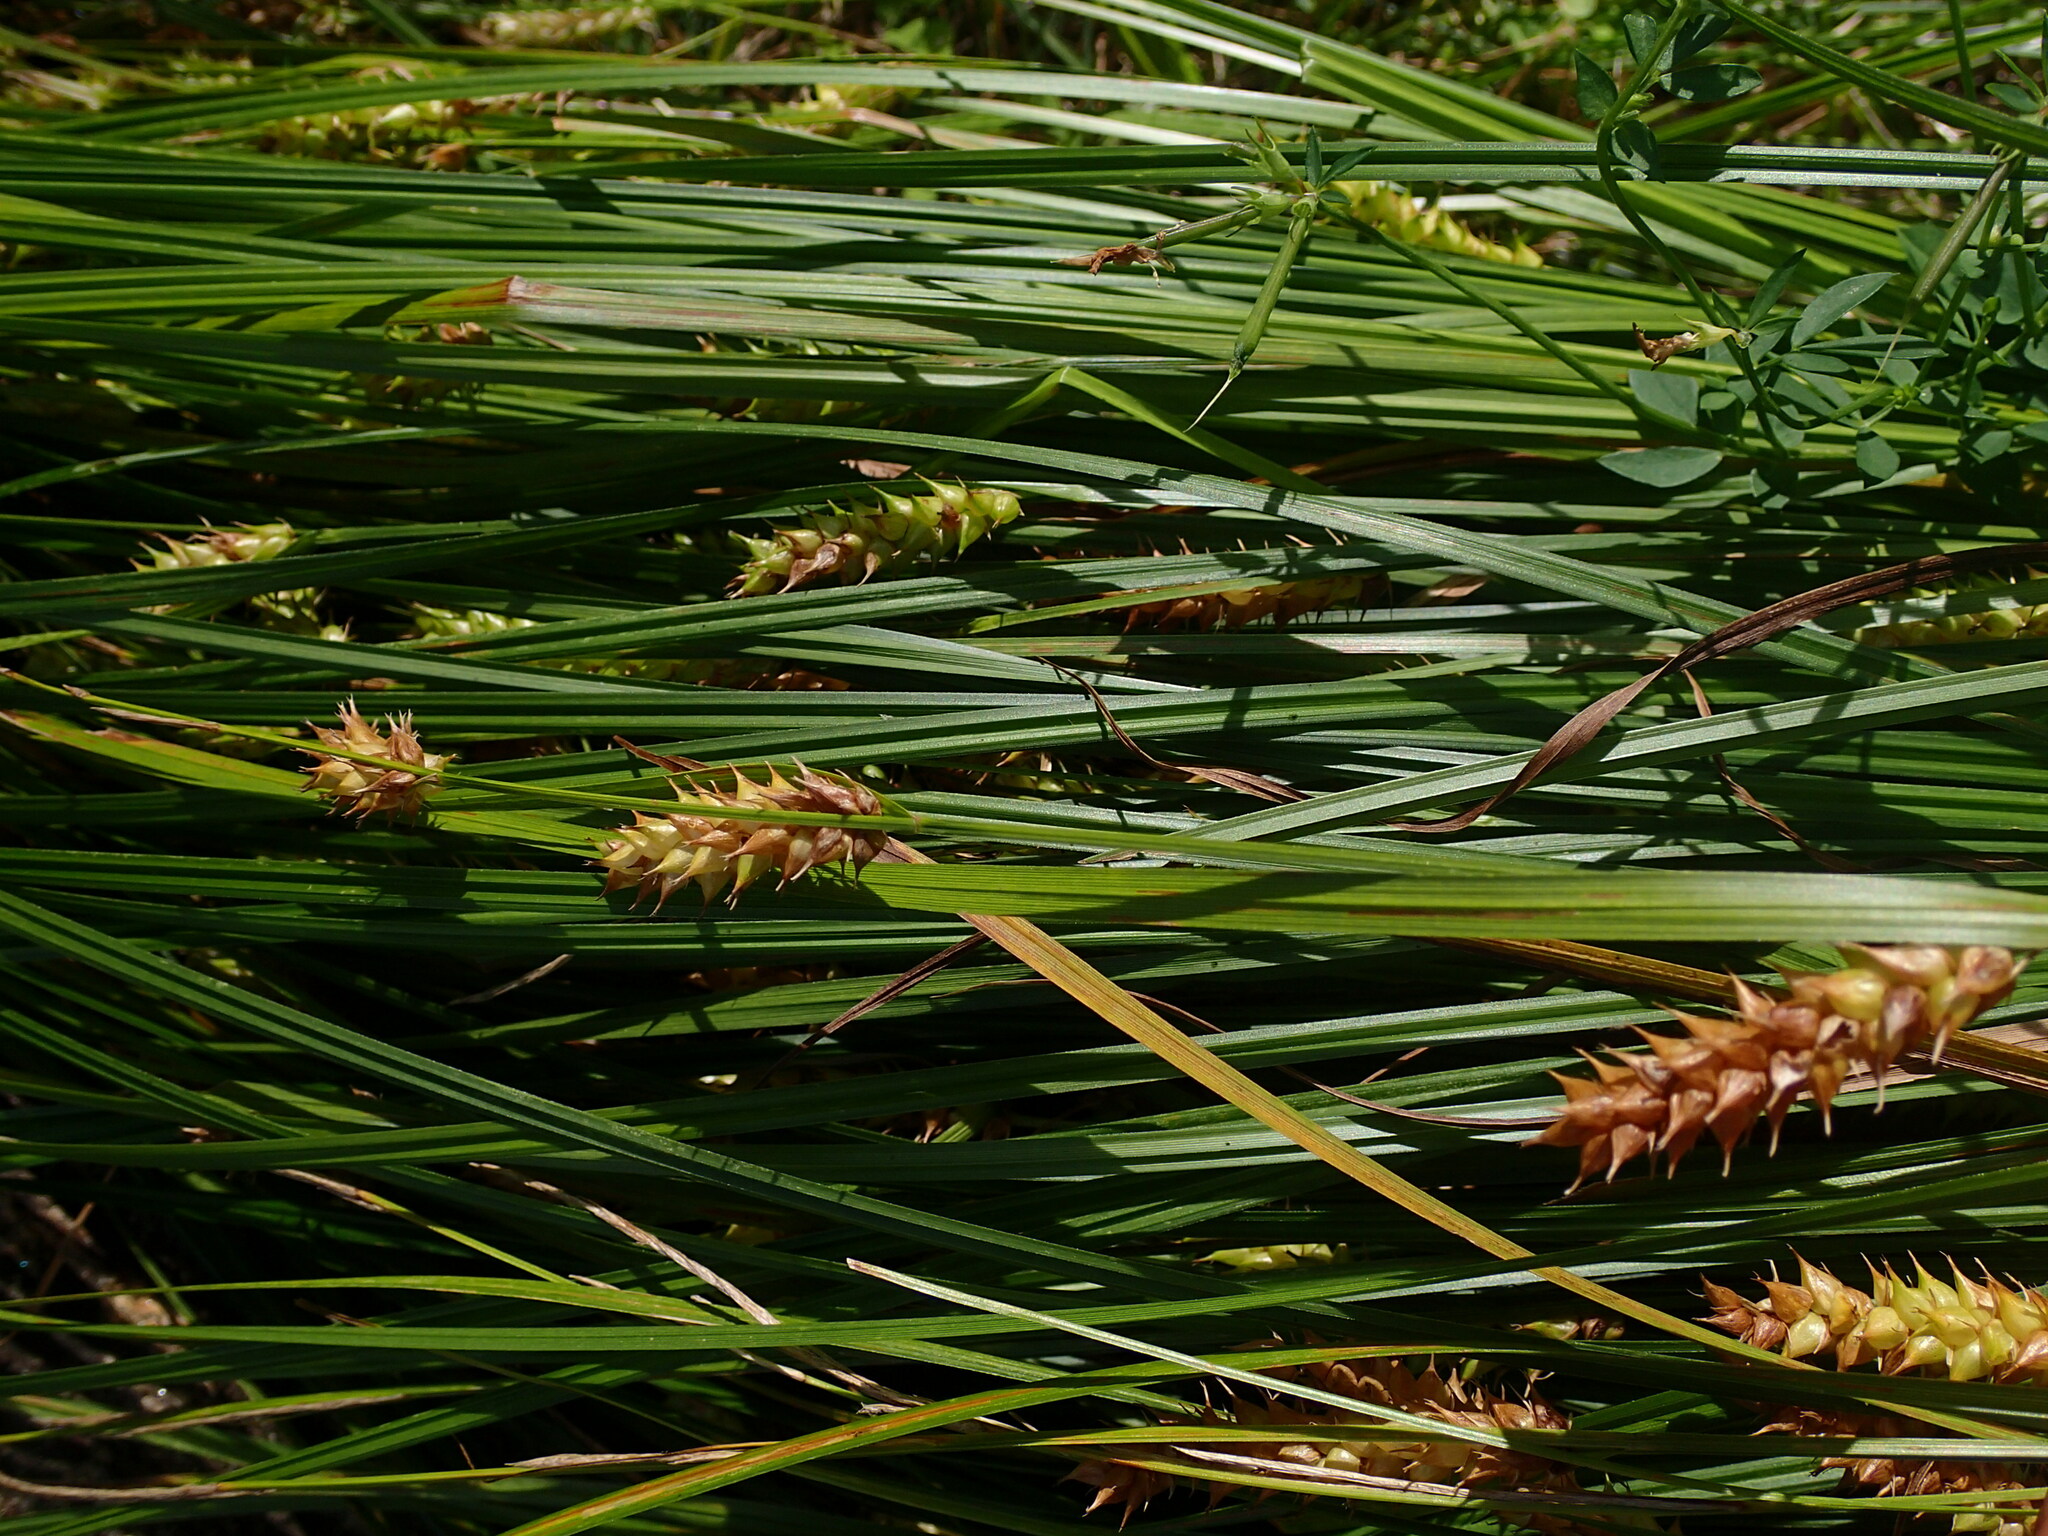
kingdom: Plantae
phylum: Tracheophyta
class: Liliopsida
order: Poales
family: Cyperaceae
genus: Carex
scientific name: Carex vesicaria
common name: Bladder-sedge
